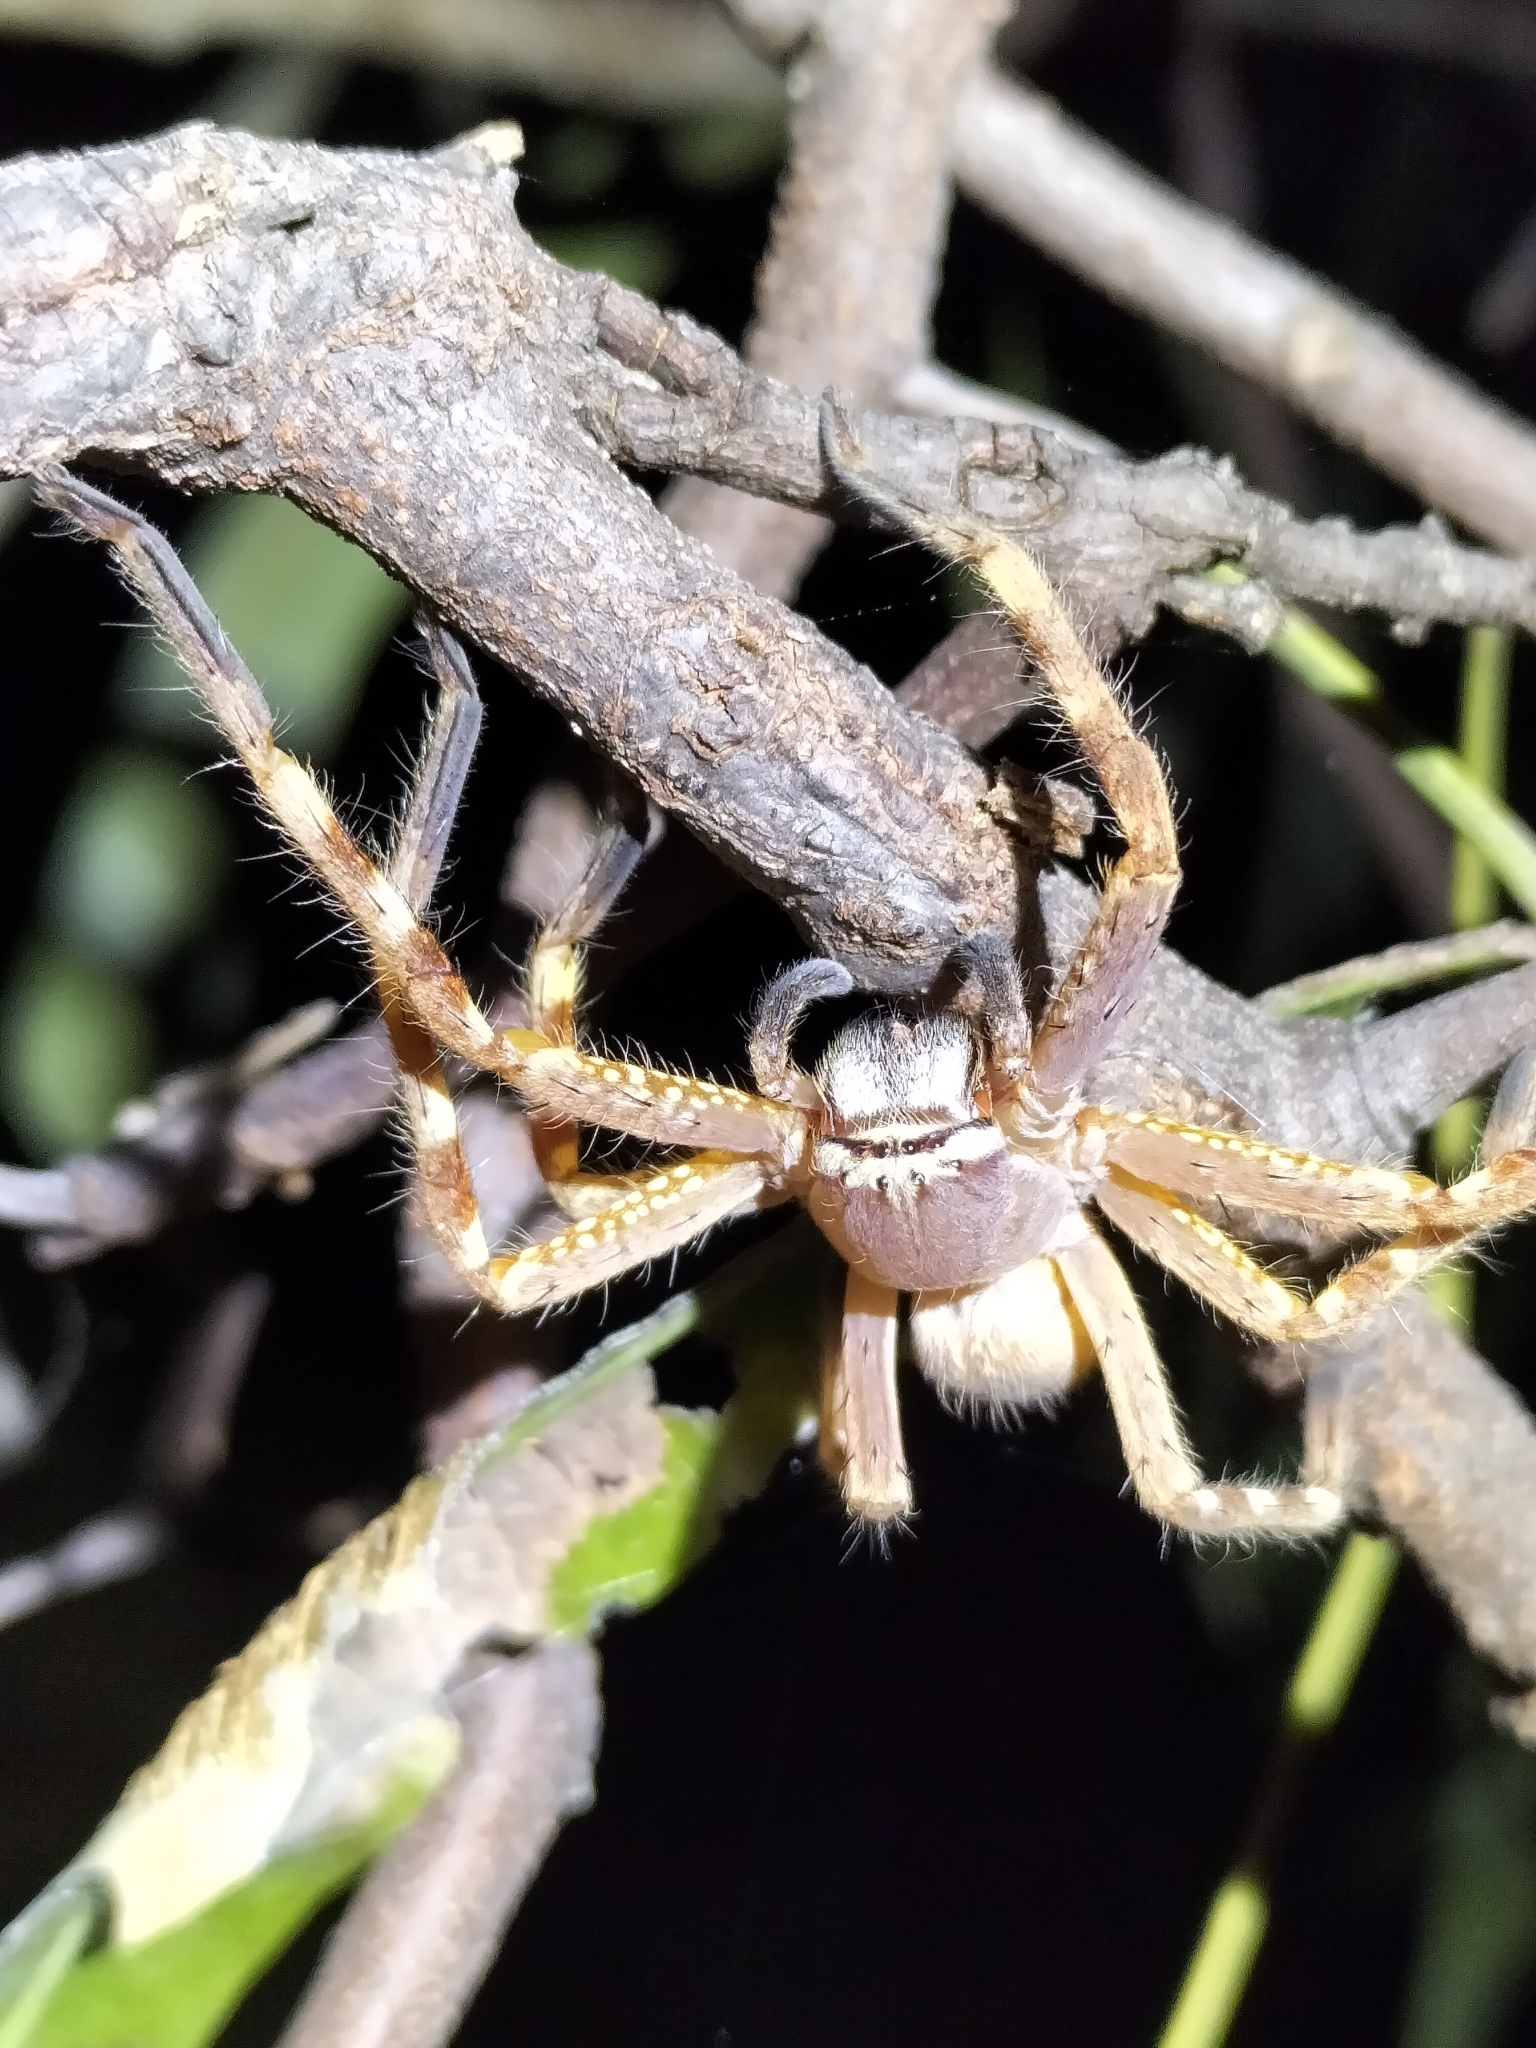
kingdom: Animalia
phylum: Arthropoda
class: Arachnida
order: Araneae
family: Sparassidae
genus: Neosparassus
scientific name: Neosparassus rutilus
